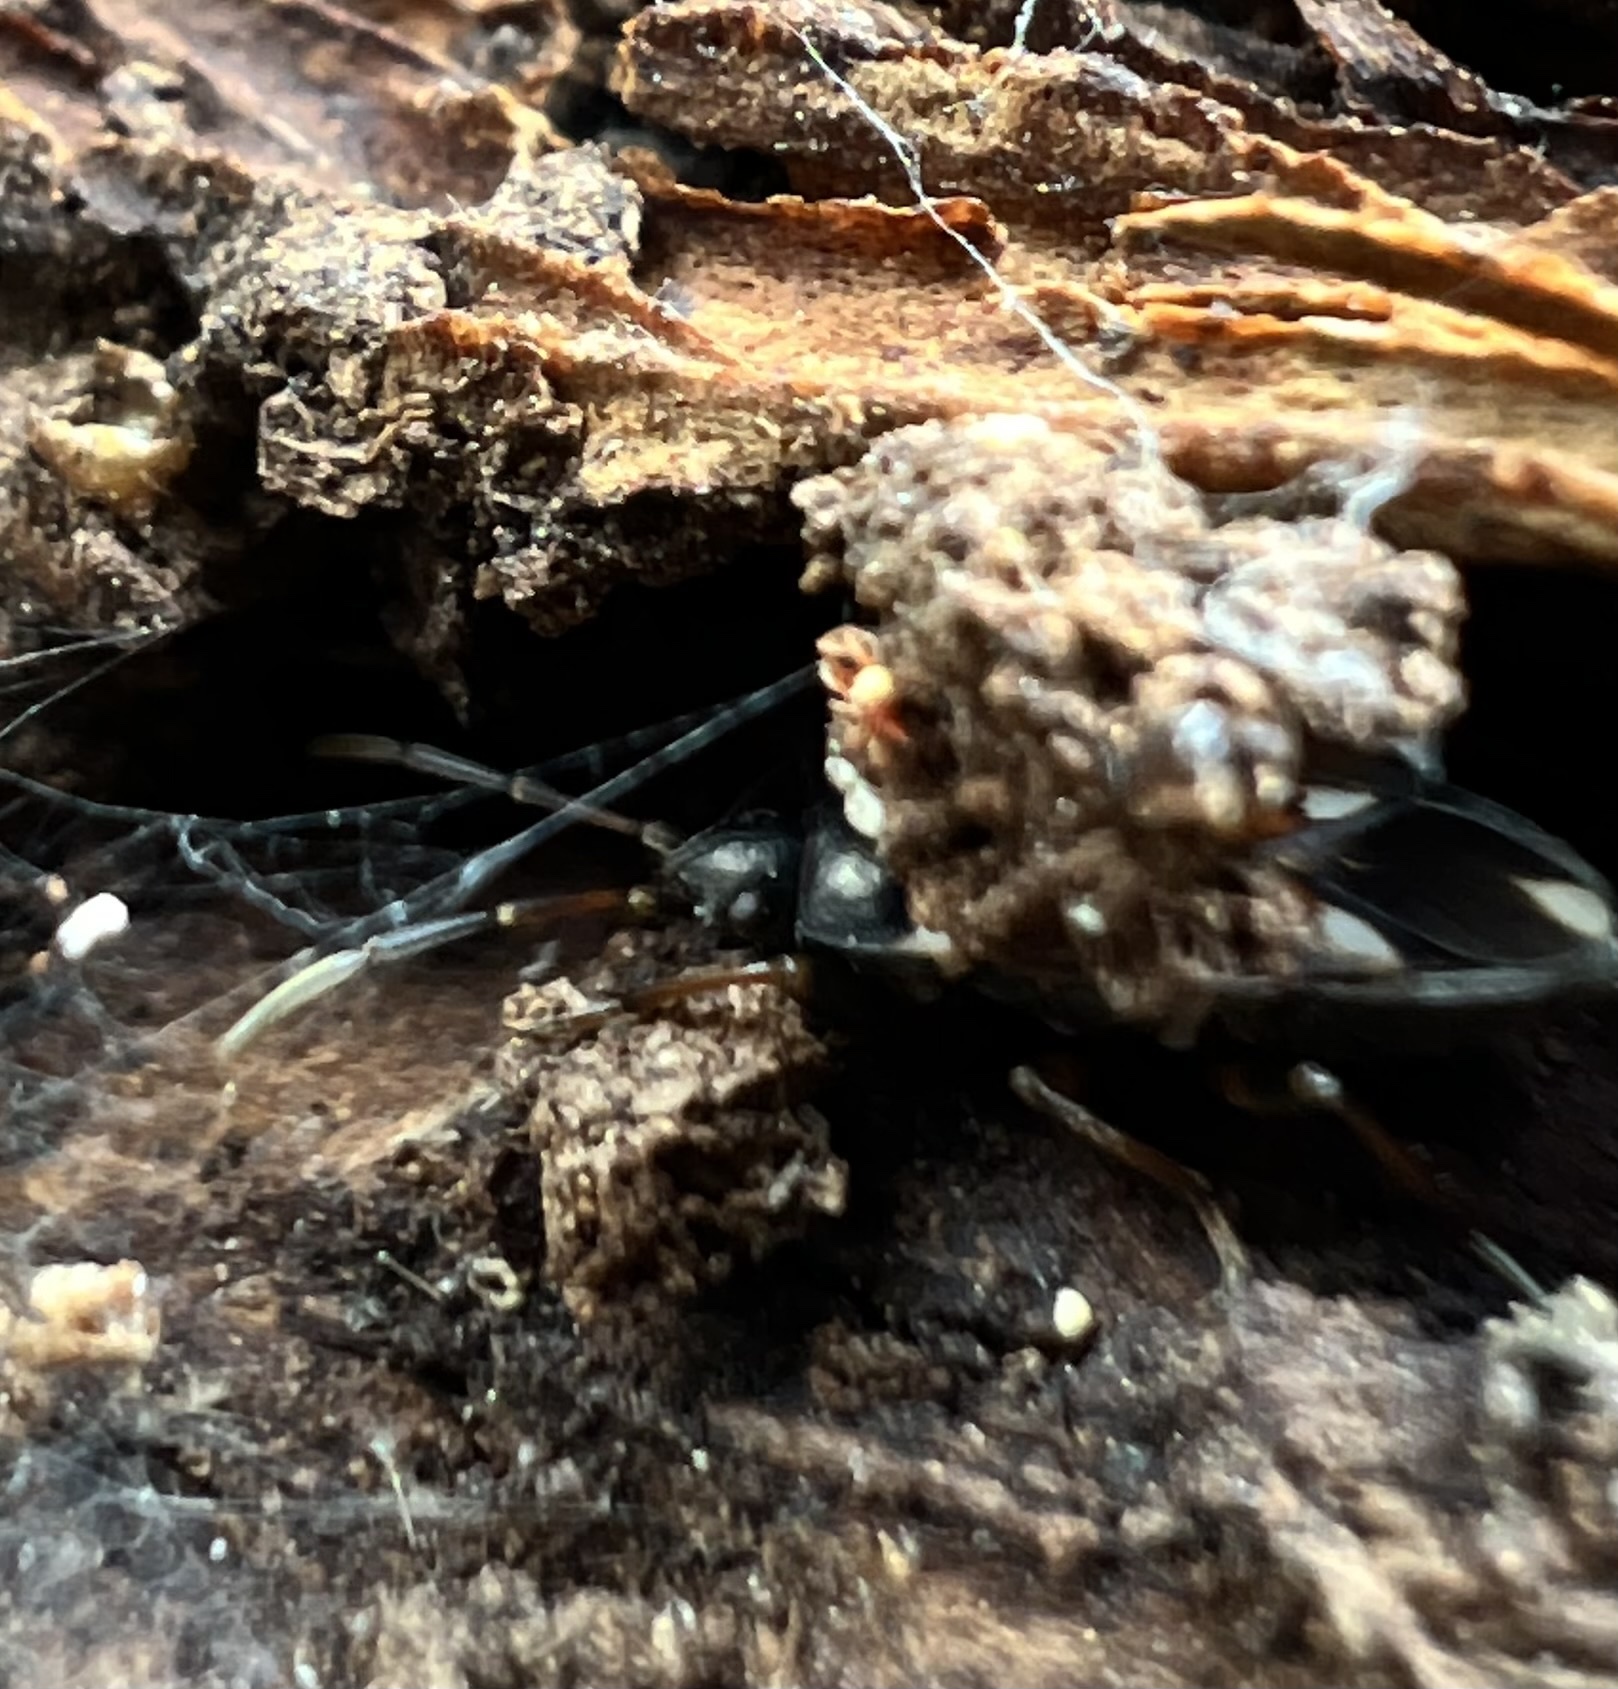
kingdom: Animalia
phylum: Arthropoda
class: Insecta
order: Hemiptera
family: Rhyparochromidae
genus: Raglius
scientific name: Raglius alboacuminatus
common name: Dirt-colored seed bug
